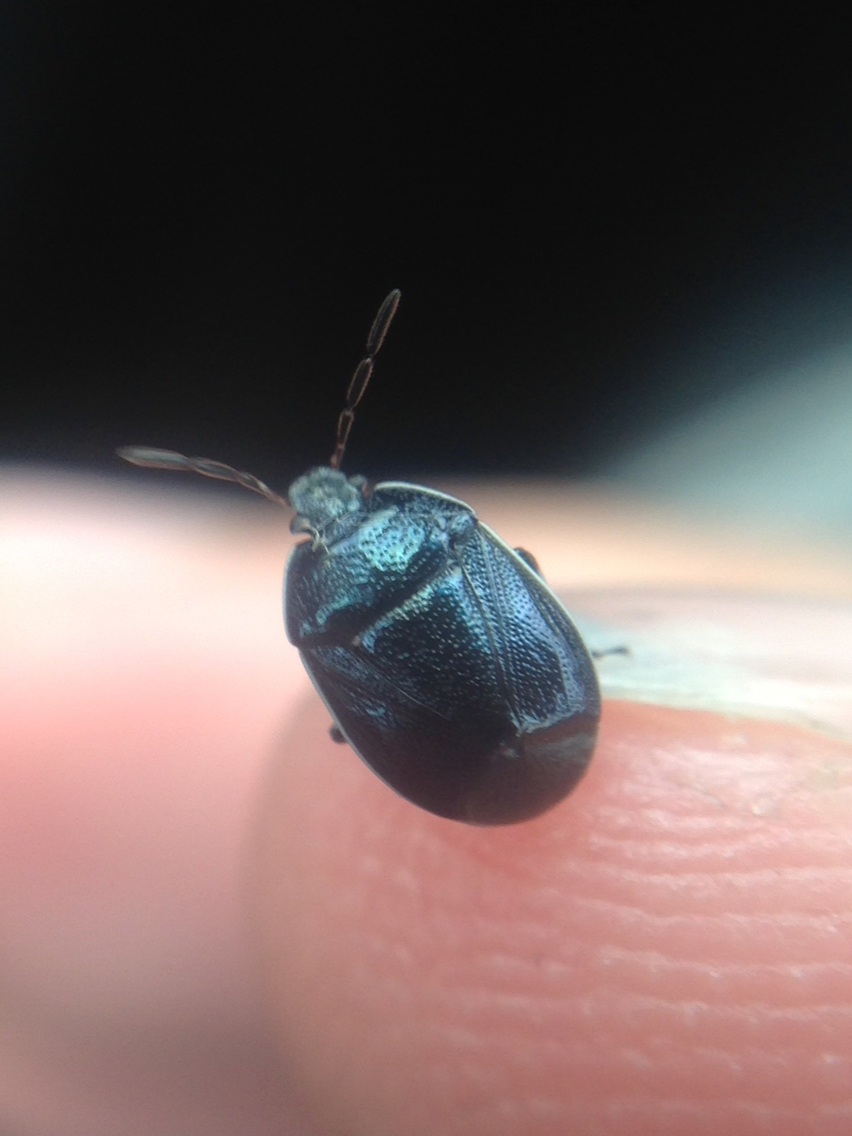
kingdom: Animalia
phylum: Arthropoda
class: Insecta
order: Hemiptera
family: Cydnidae
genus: Sehirus
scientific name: Sehirus cinctus
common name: White-margined burrower bug
